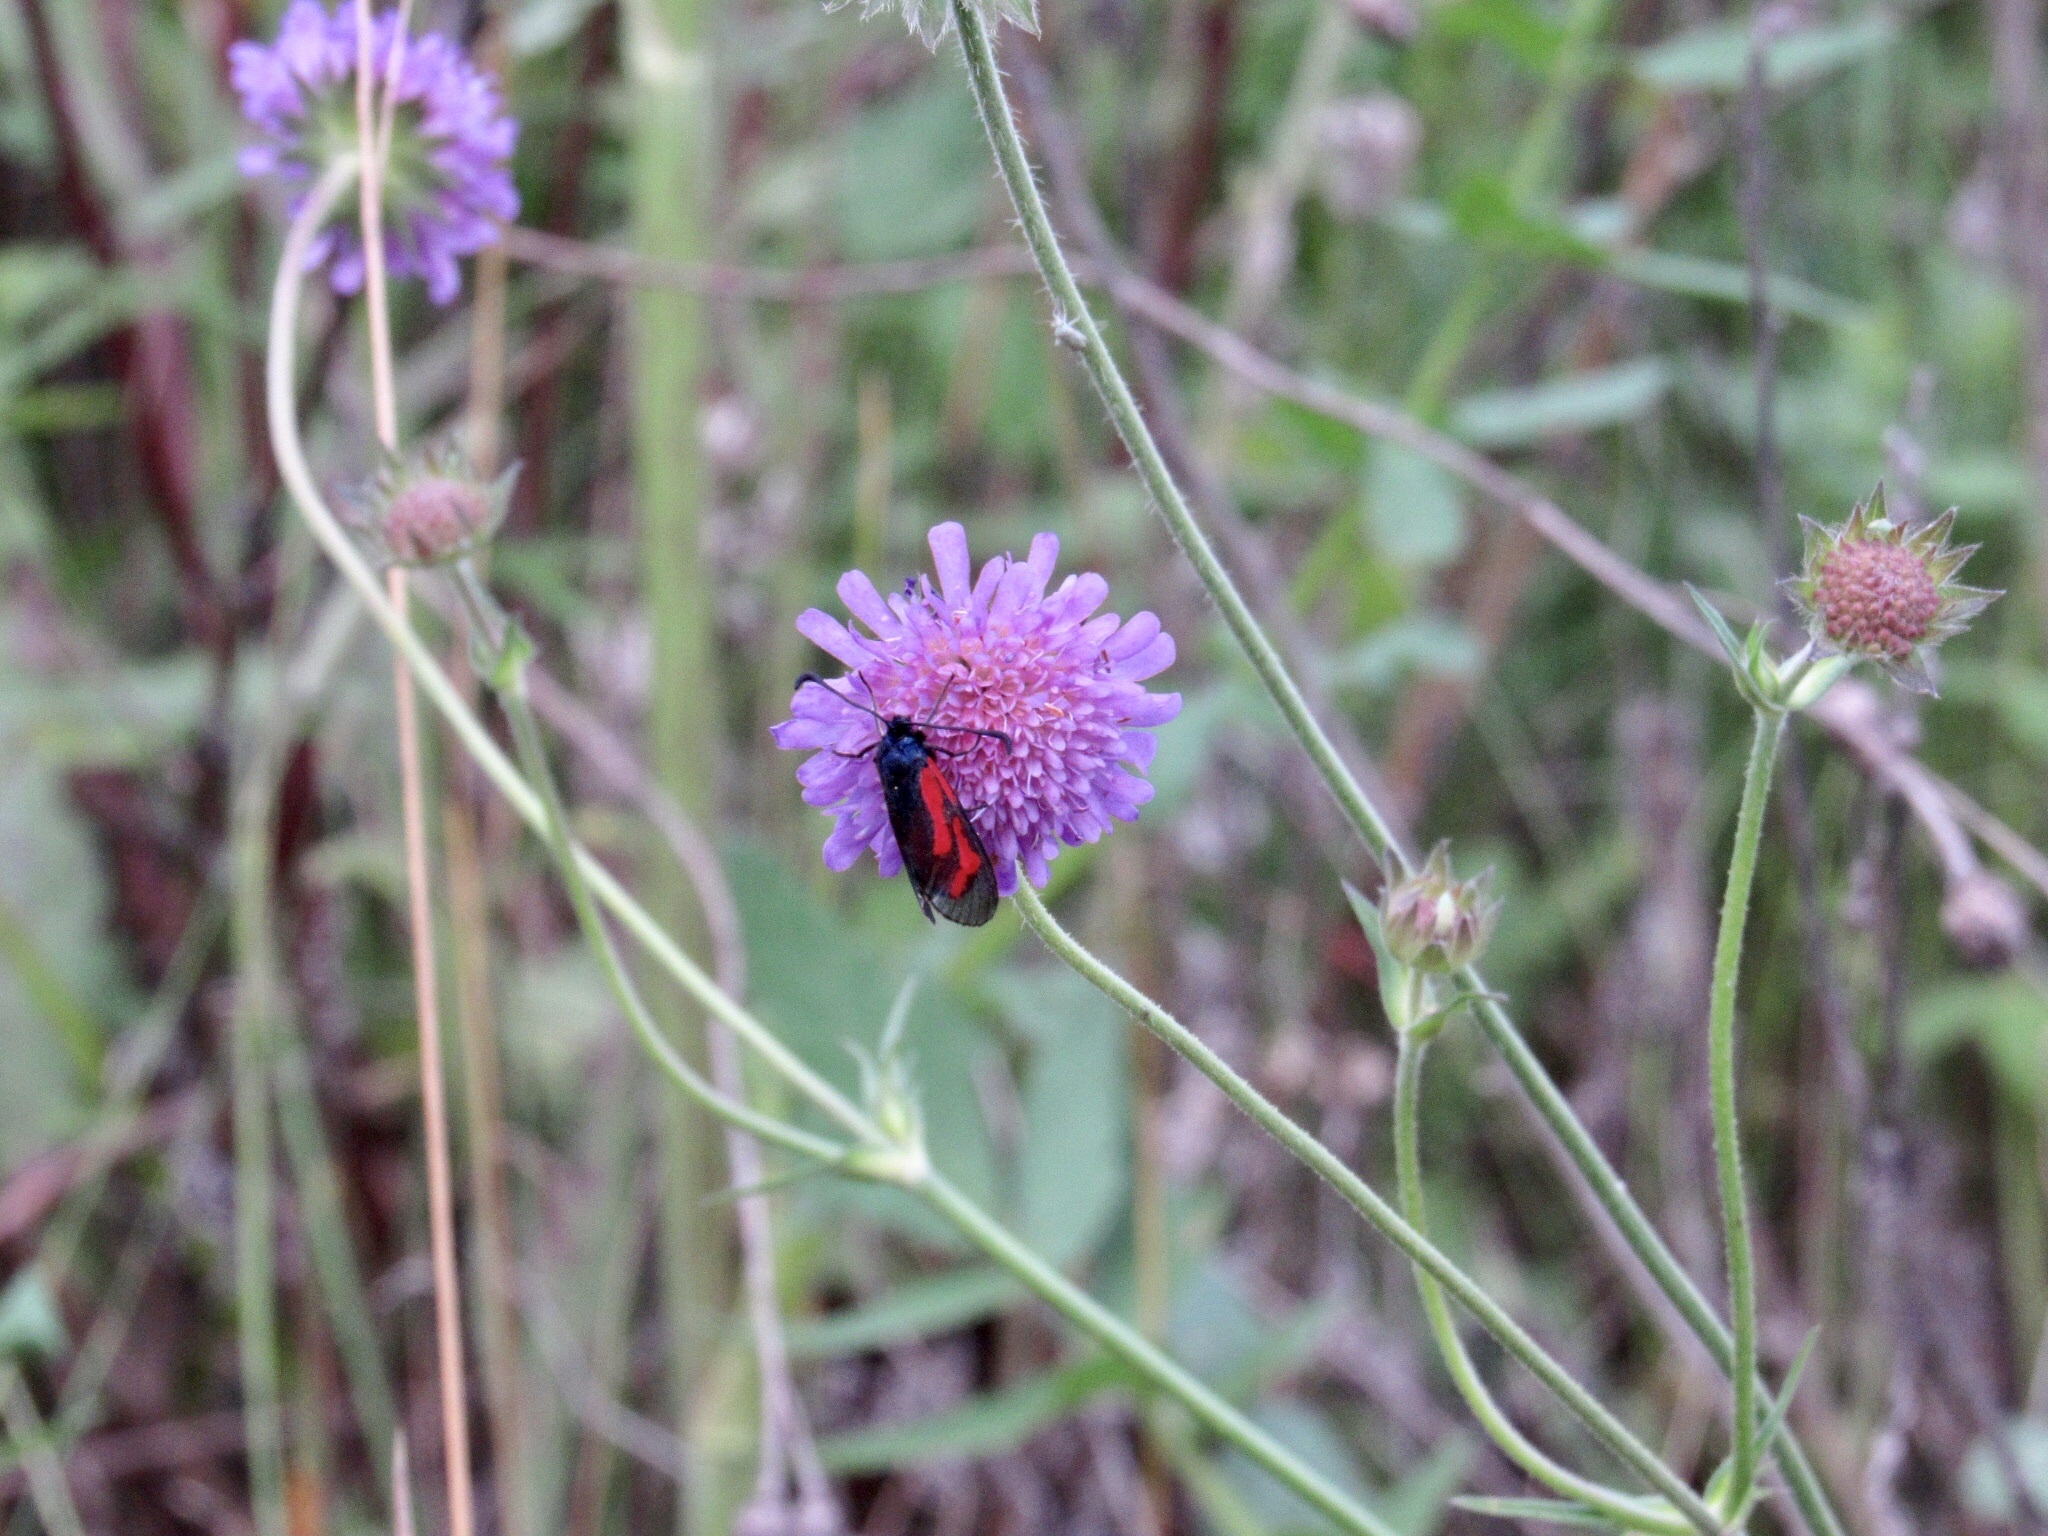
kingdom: Animalia
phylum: Arthropoda
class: Insecta
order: Lepidoptera
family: Zygaenidae
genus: Zygaena
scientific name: Zygaena minos
